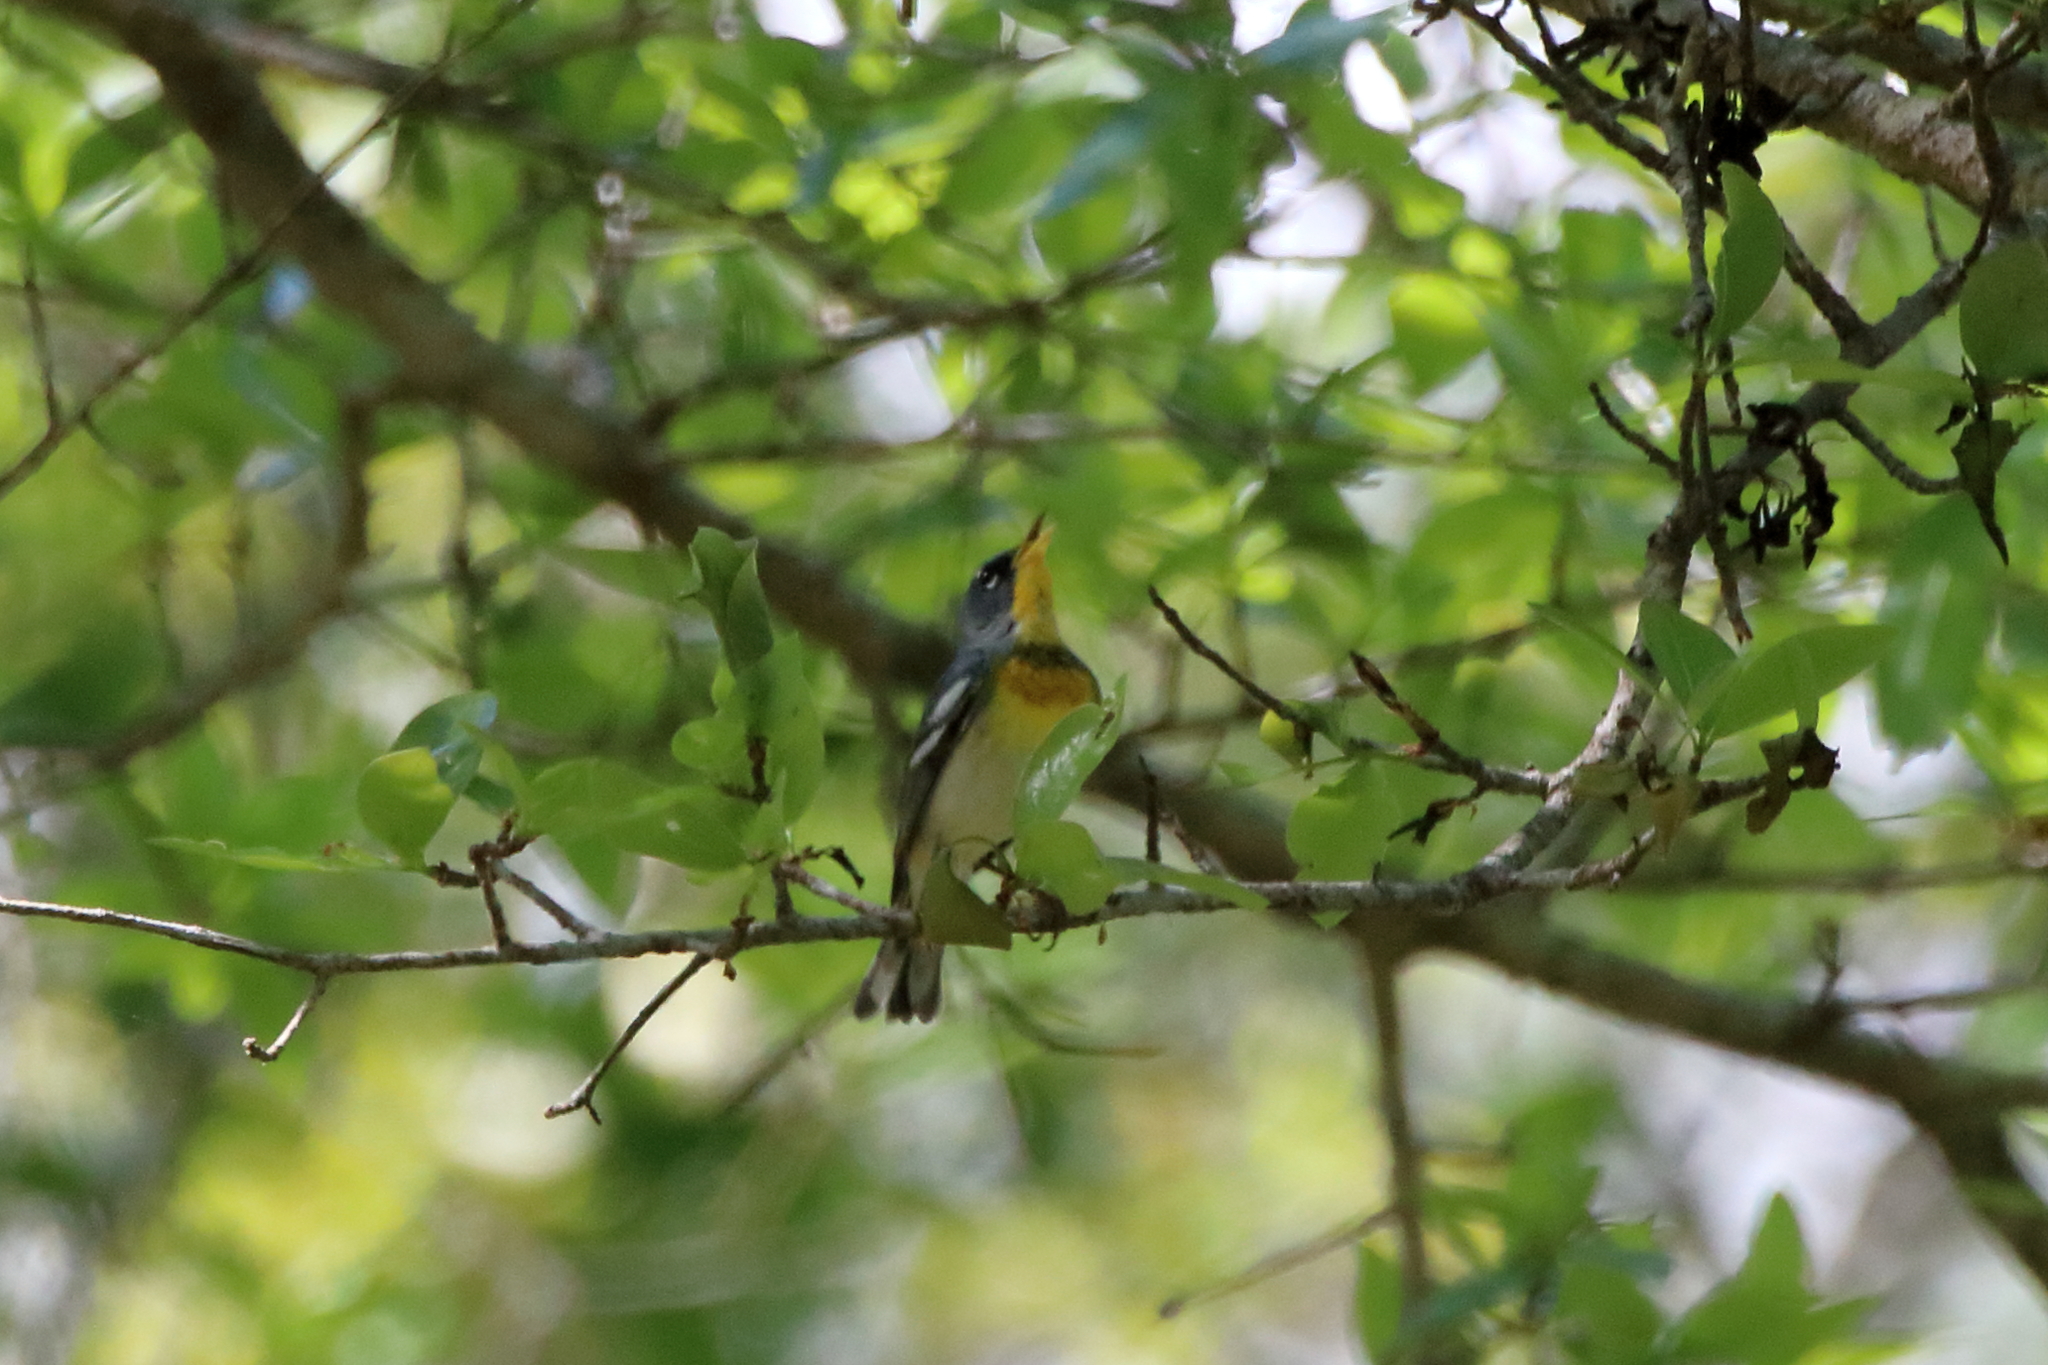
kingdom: Animalia
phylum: Chordata
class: Aves
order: Passeriformes
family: Parulidae
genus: Setophaga
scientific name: Setophaga americana
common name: Northern parula
